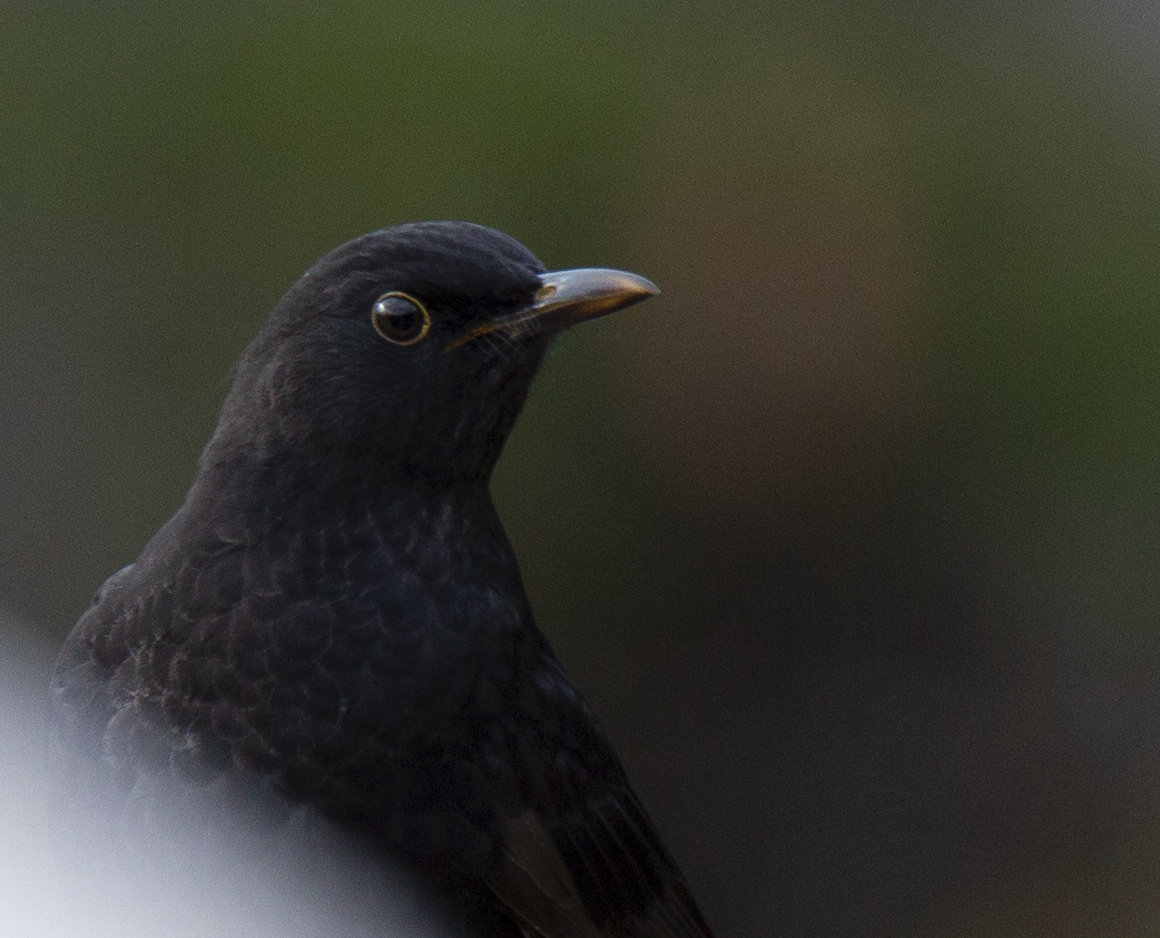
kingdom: Animalia
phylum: Chordata
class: Aves
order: Passeriformes
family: Turdidae
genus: Turdus
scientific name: Turdus merula
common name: Common blackbird
